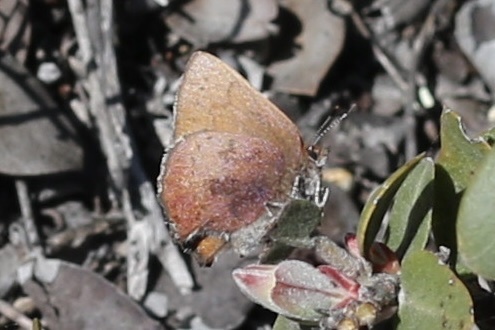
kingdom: Animalia
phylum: Arthropoda
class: Insecta
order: Lepidoptera
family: Lycaenidae
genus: Incisalia
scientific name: Incisalia irioides
